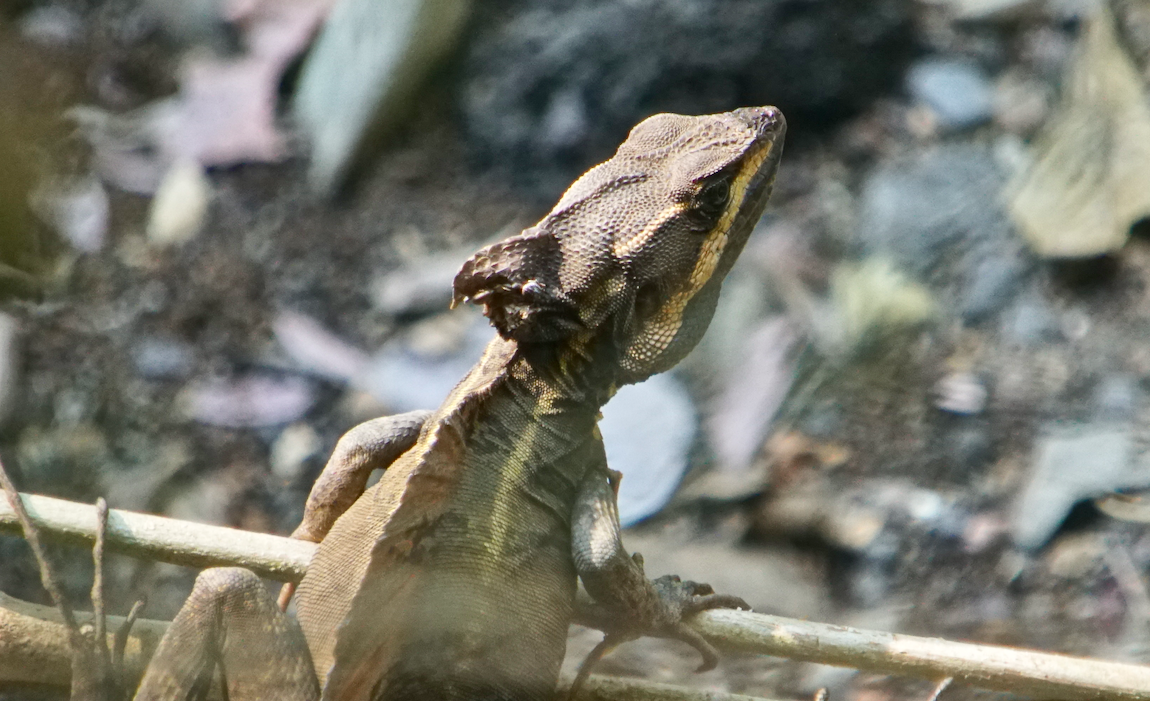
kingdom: Animalia
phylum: Chordata
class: Squamata
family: Corytophanidae
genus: Basiliscus
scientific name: Basiliscus basiliscus
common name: Common basilisk
